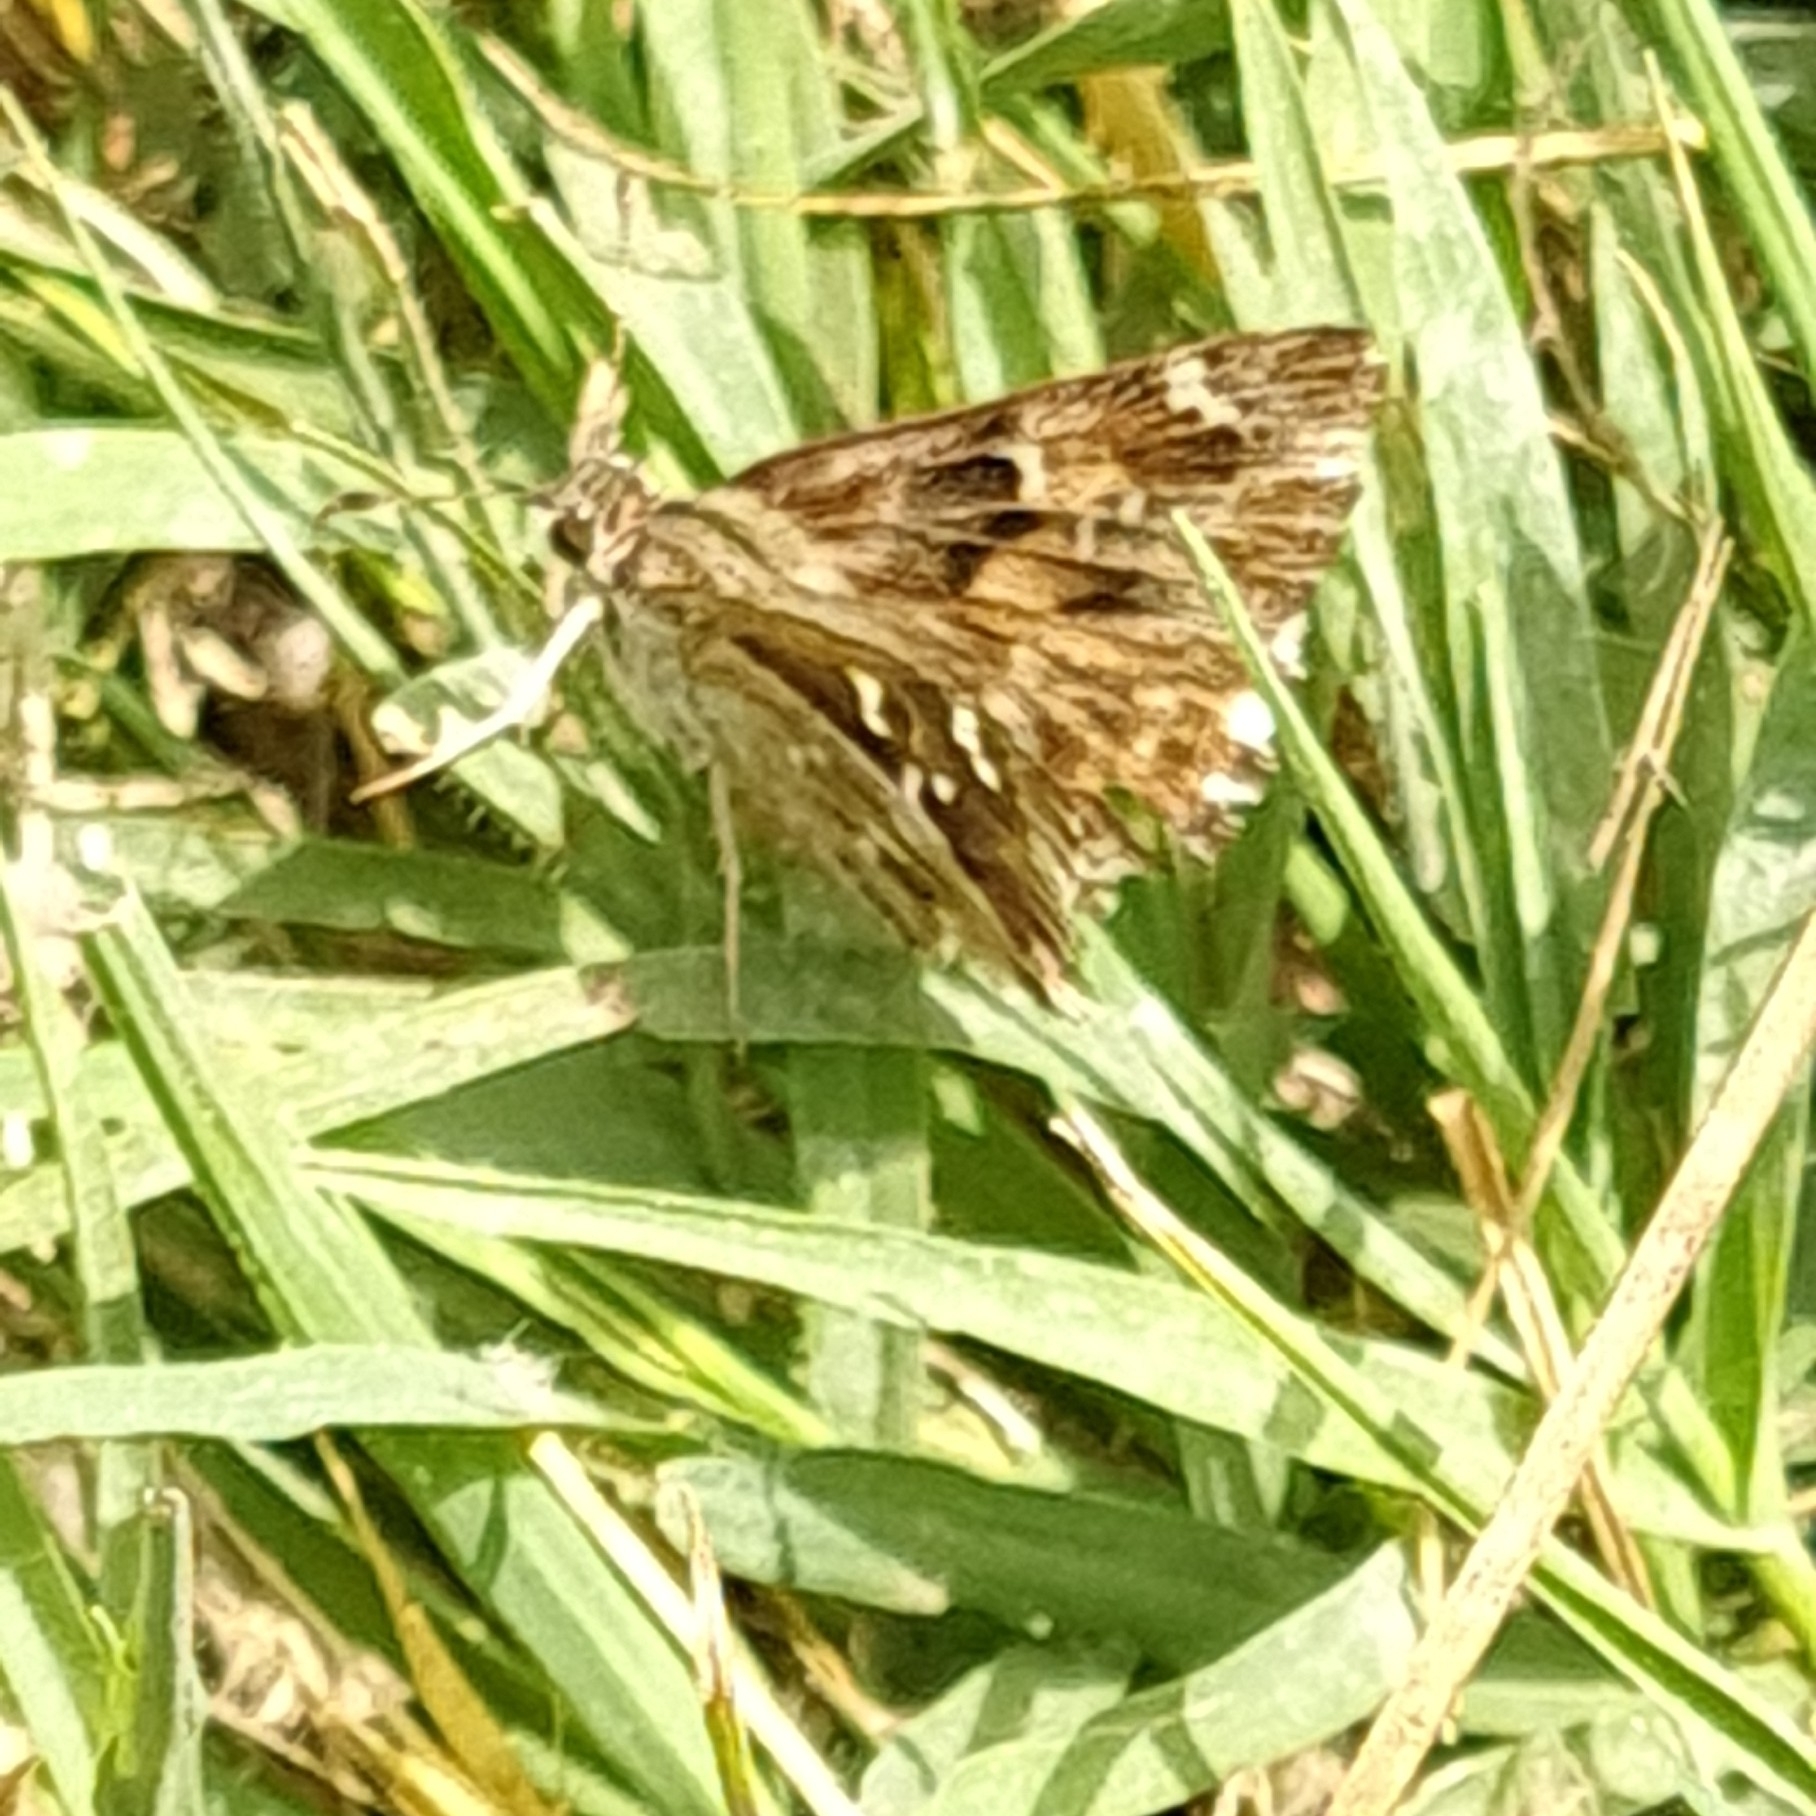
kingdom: Animalia
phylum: Arthropoda
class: Insecta
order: Lepidoptera
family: Hesperiidae
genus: Carcharodus
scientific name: Carcharodus alceae
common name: Mallow skipper
